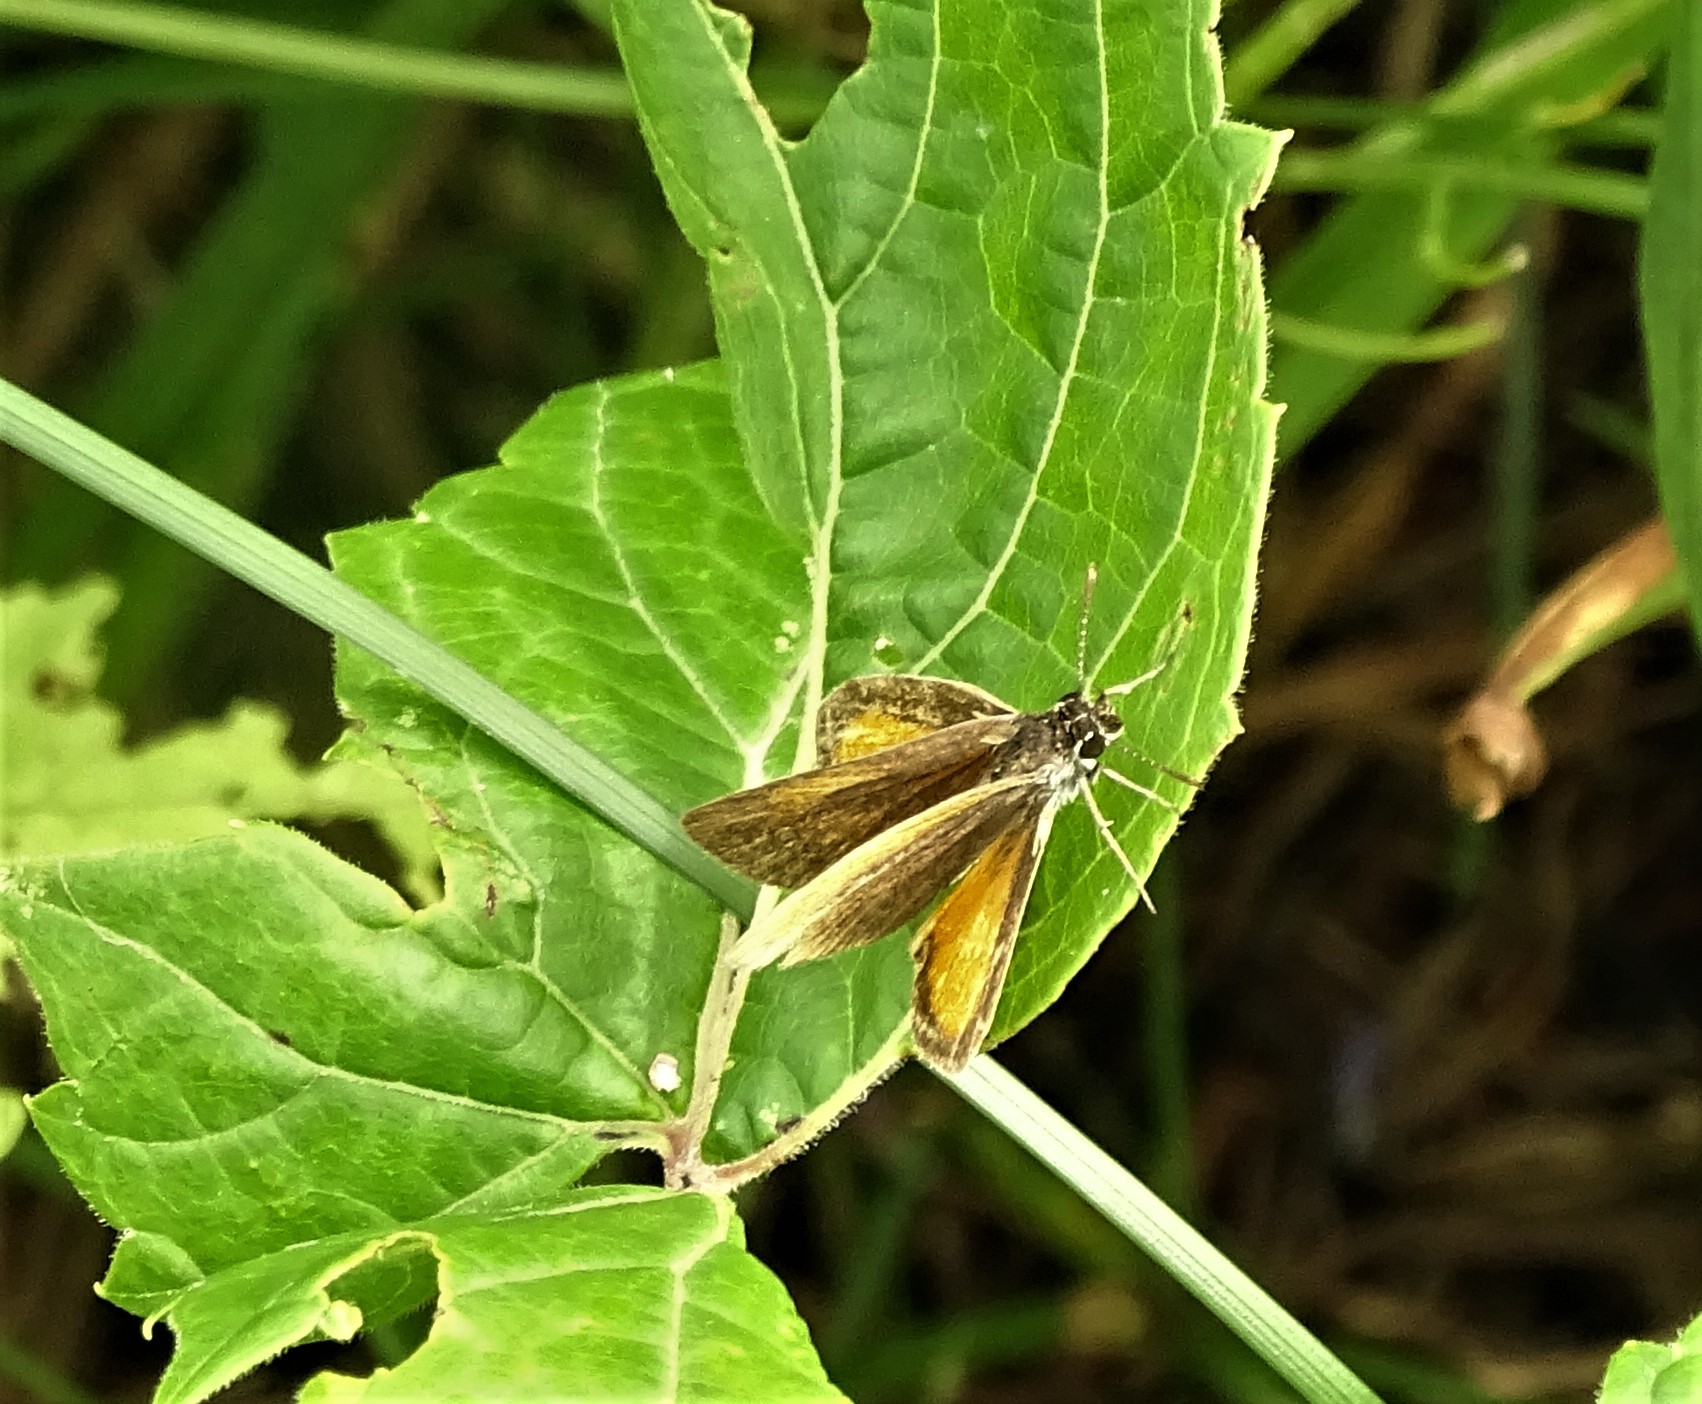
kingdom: Animalia
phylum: Arthropoda
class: Insecta
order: Lepidoptera
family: Hesperiidae
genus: Ancyloxypha
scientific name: Ancyloxypha numitor
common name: Least skipper
